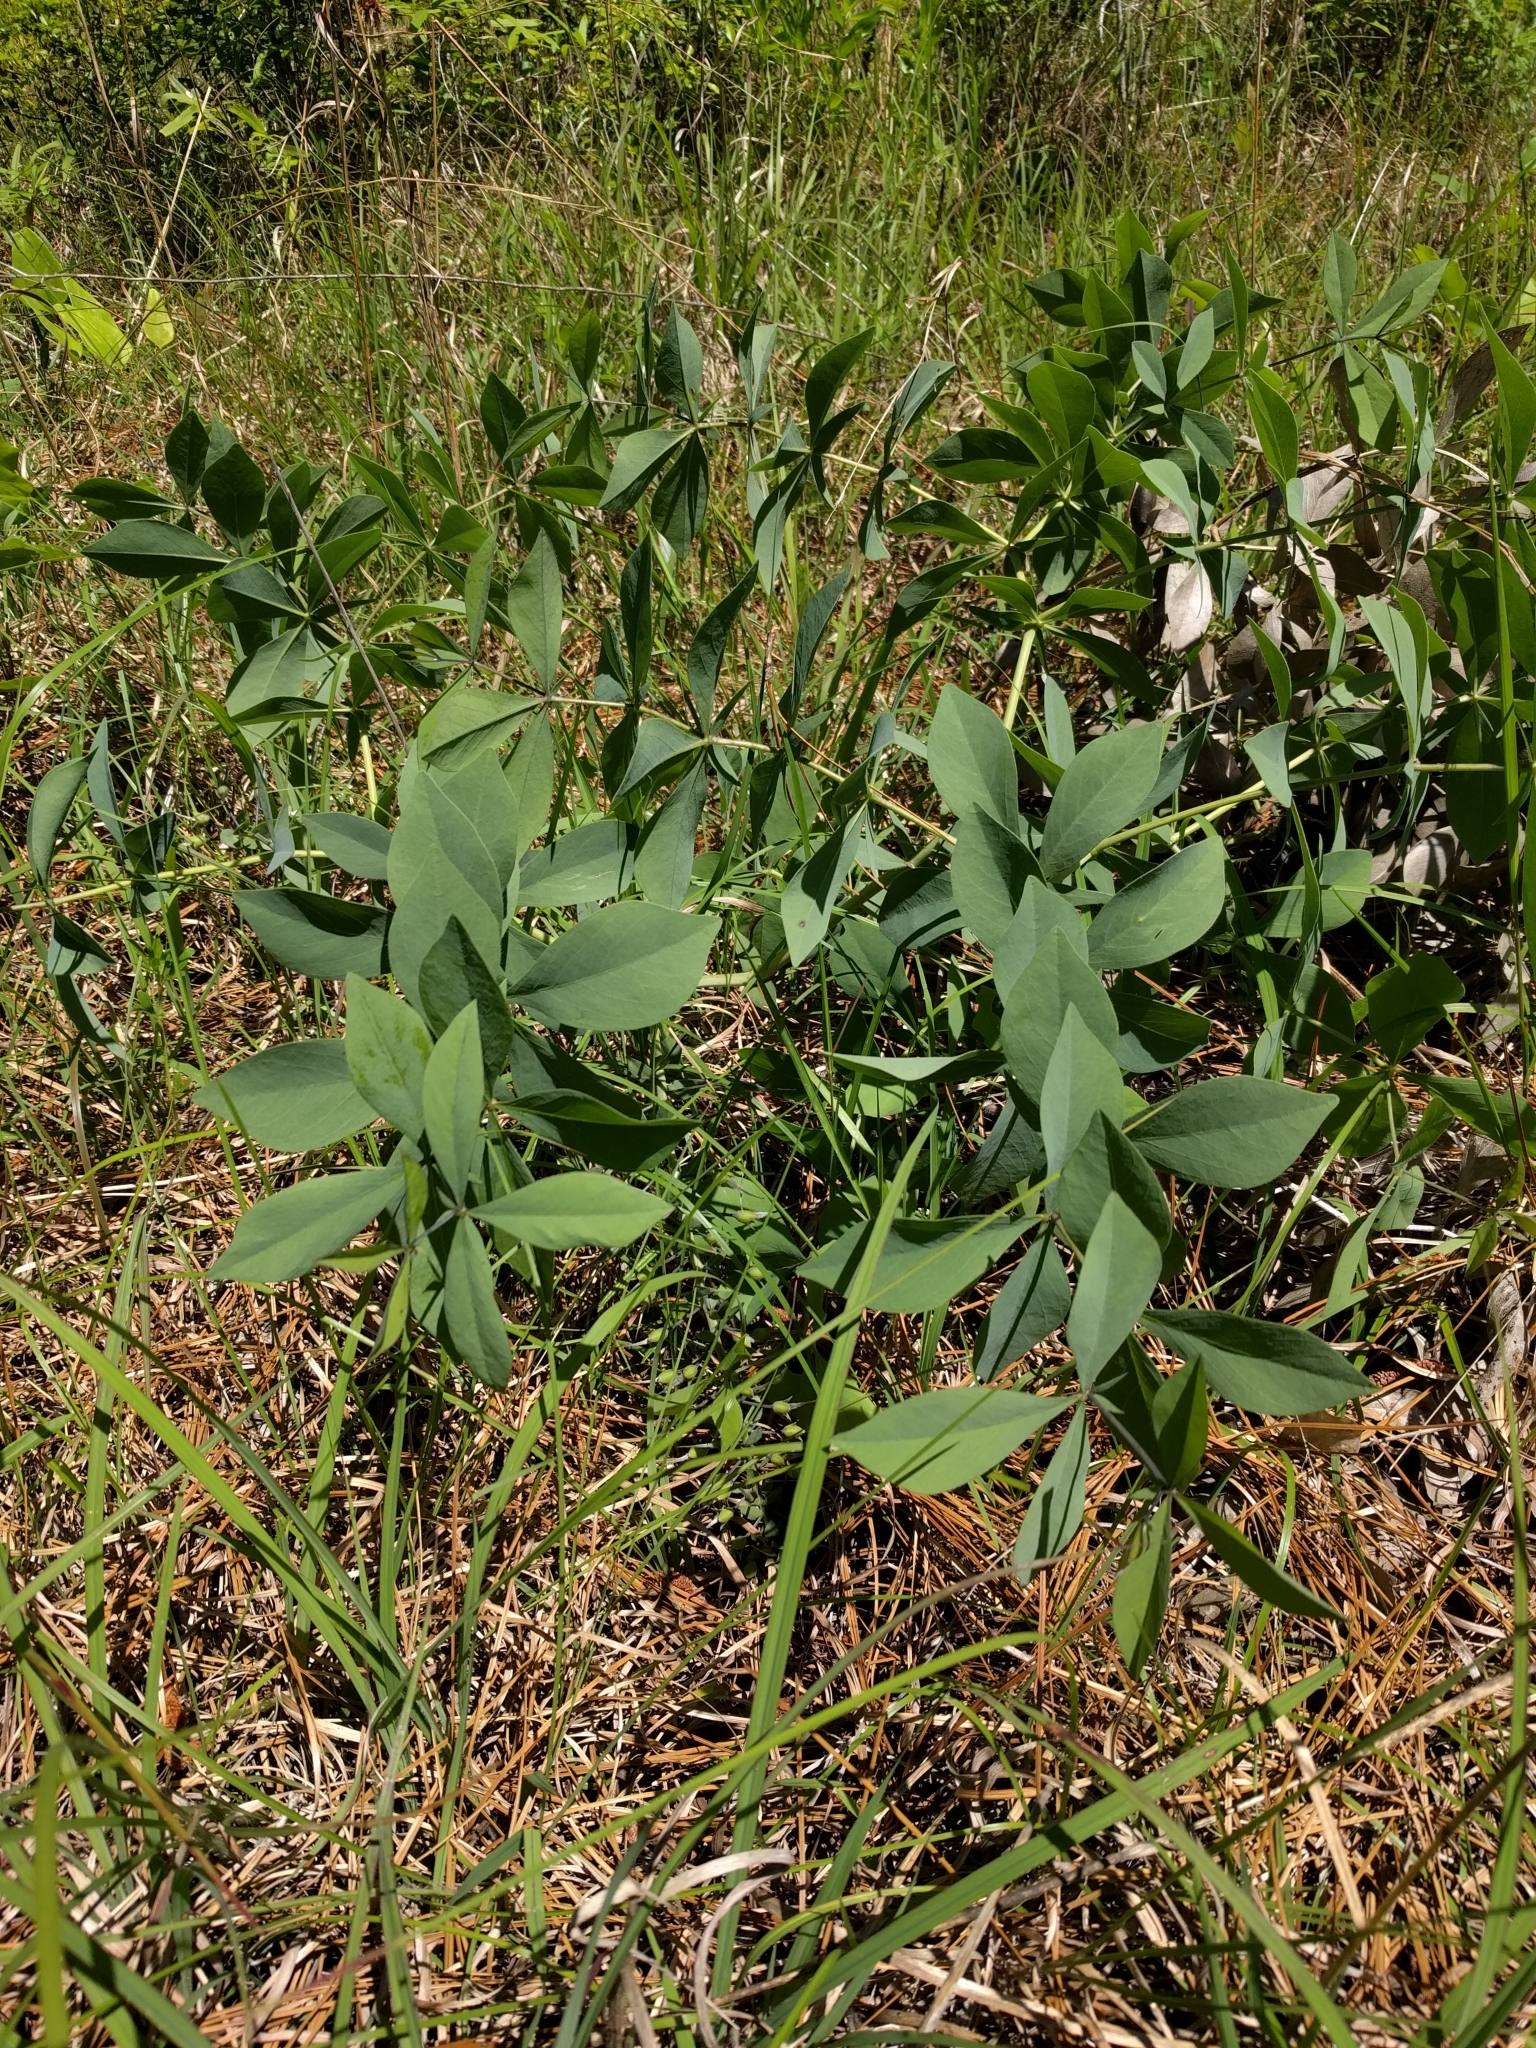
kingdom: Plantae
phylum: Tracheophyta
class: Magnoliopsida
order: Fabales
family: Fabaceae
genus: Baptisia
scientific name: Baptisia bracteata
